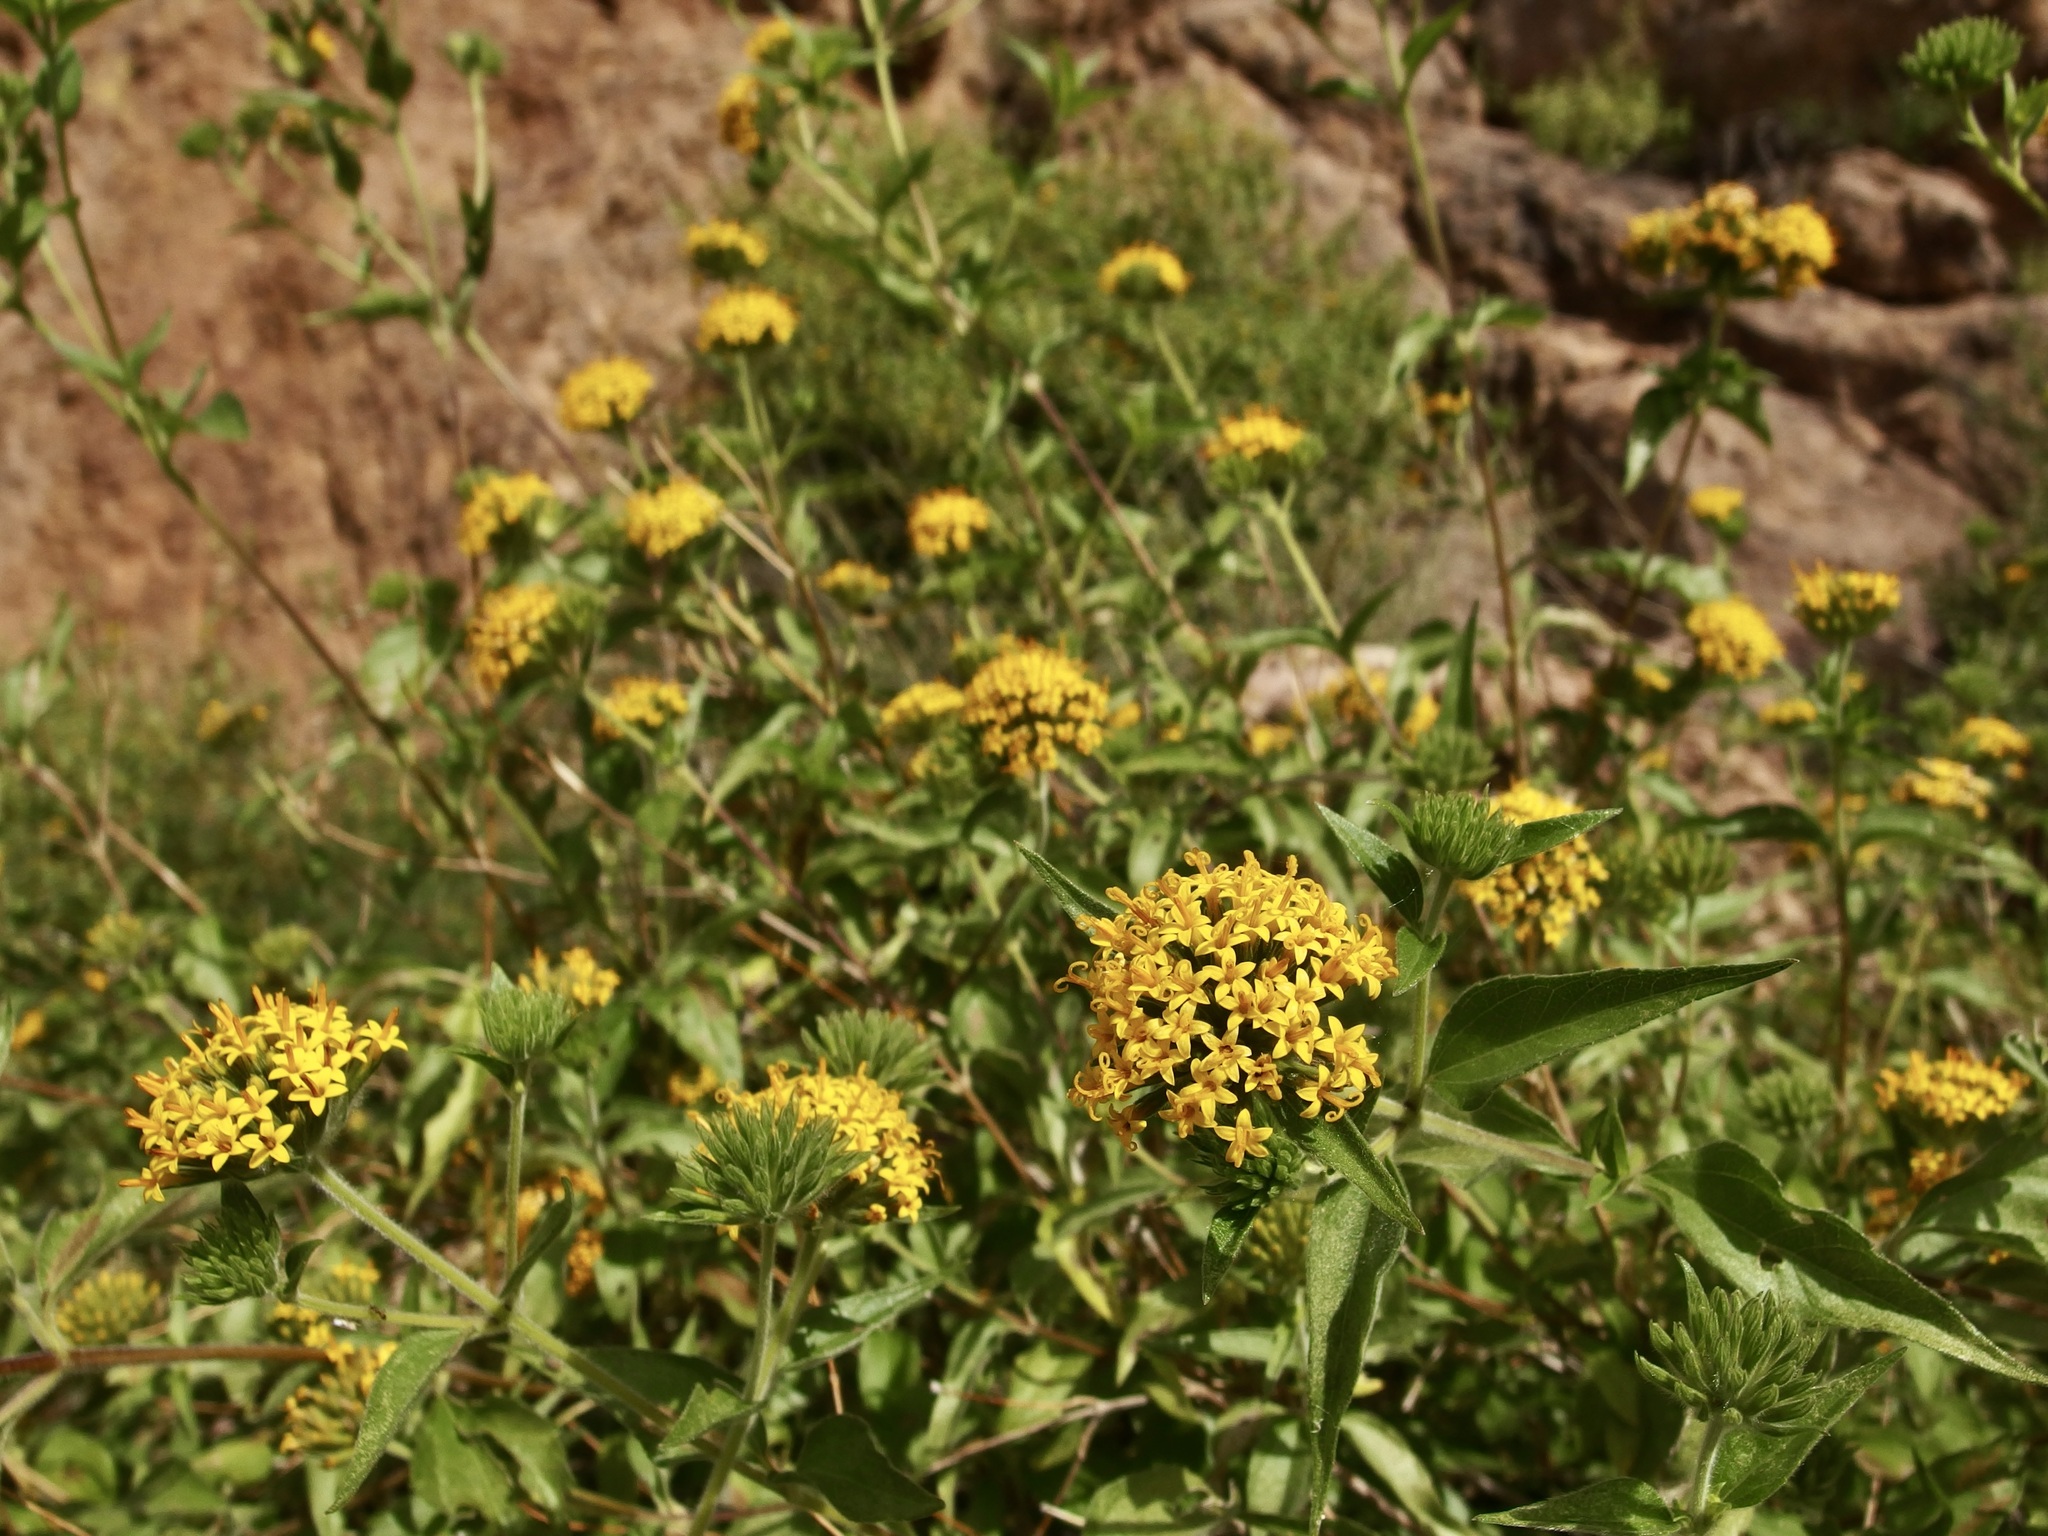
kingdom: Plantae
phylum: Tracheophyta
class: Magnoliopsida
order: Asterales
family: Asteraceae
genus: Lagascea
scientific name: Lagascea decipiens
